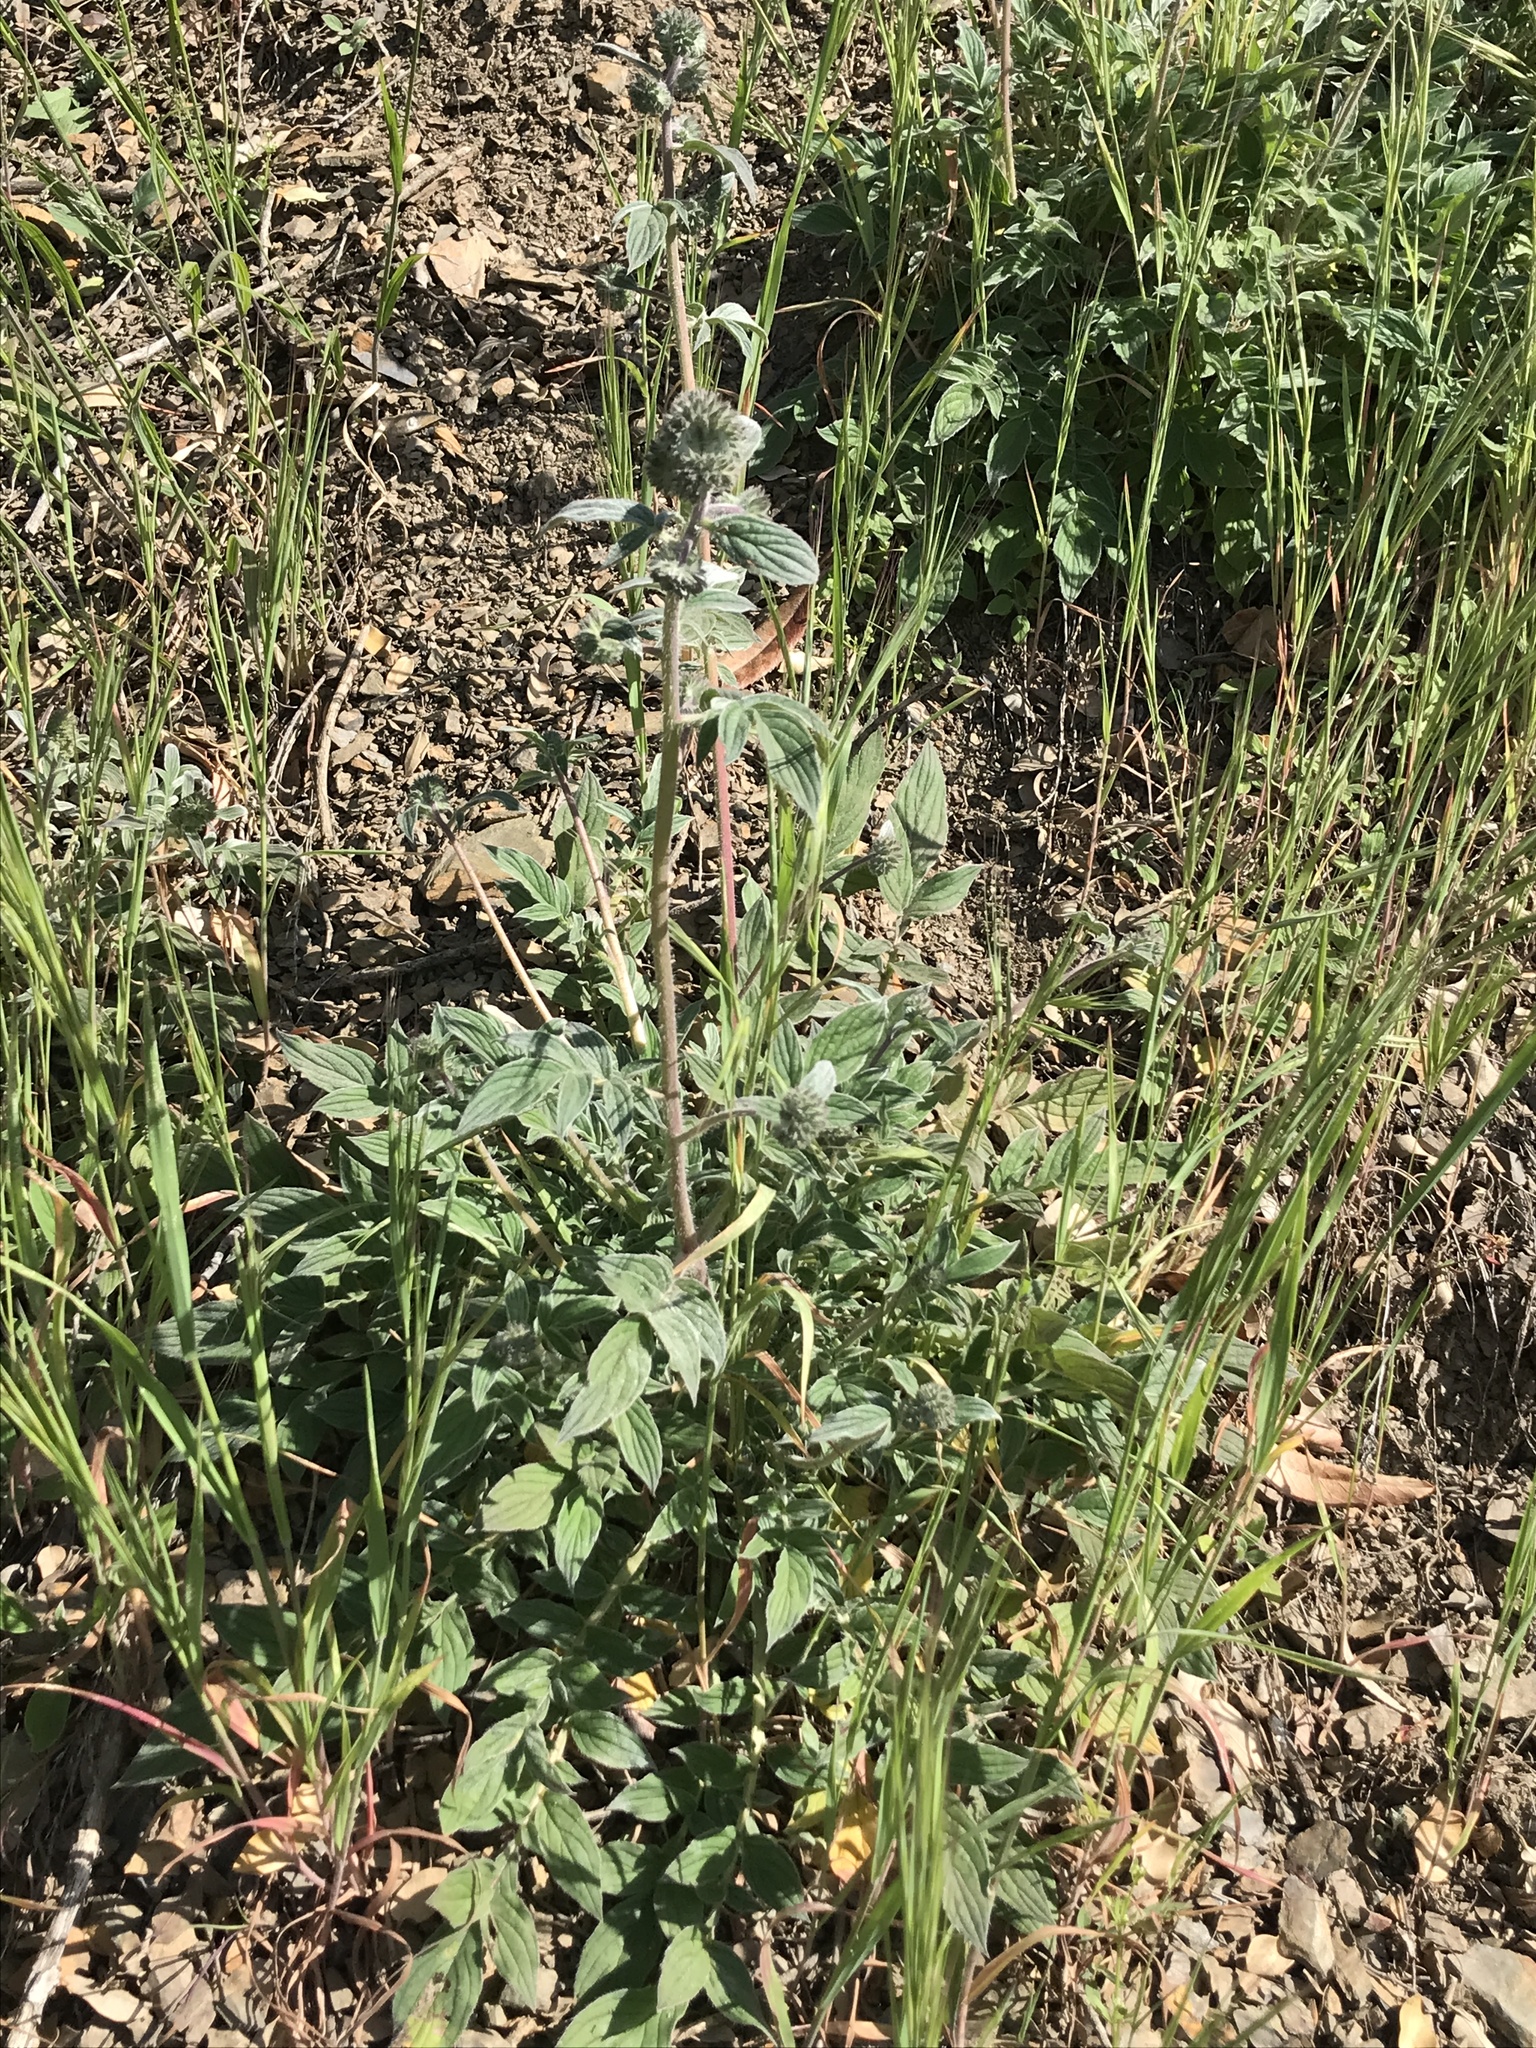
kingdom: Plantae
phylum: Tracheophyta
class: Magnoliopsida
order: Boraginales
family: Hydrophyllaceae
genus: Phacelia
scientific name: Phacelia imbricata
